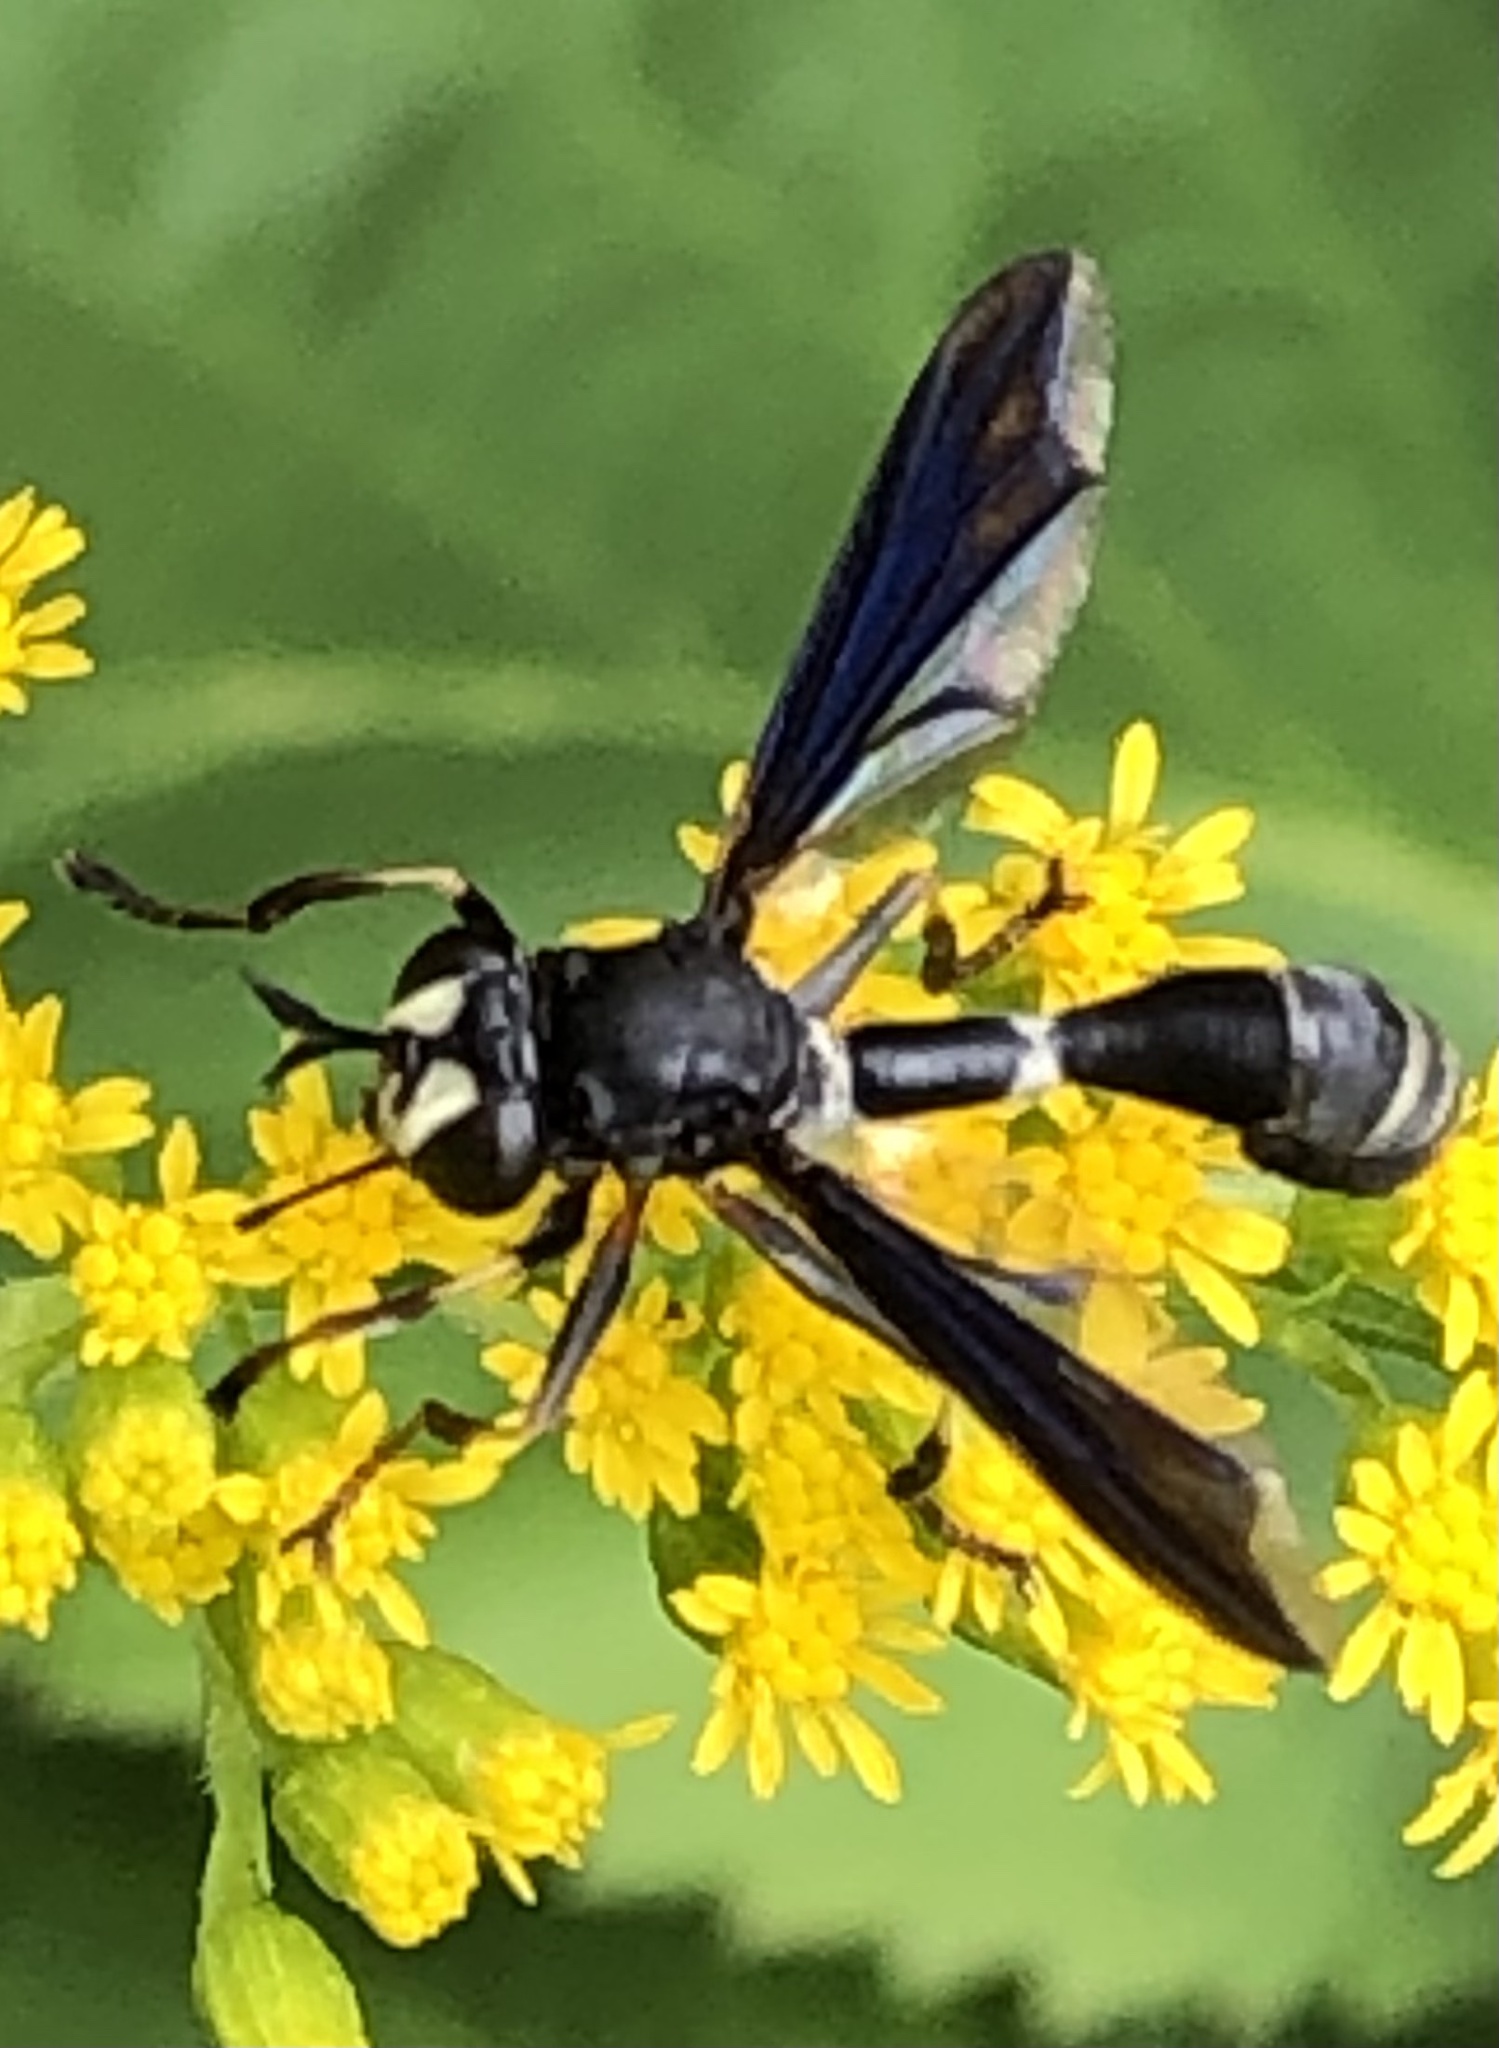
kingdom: Animalia
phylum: Arthropoda
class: Insecta
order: Diptera
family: Conopidae
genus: Physocephala
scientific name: Physocephala tibialis
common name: Common eastern physocephala
